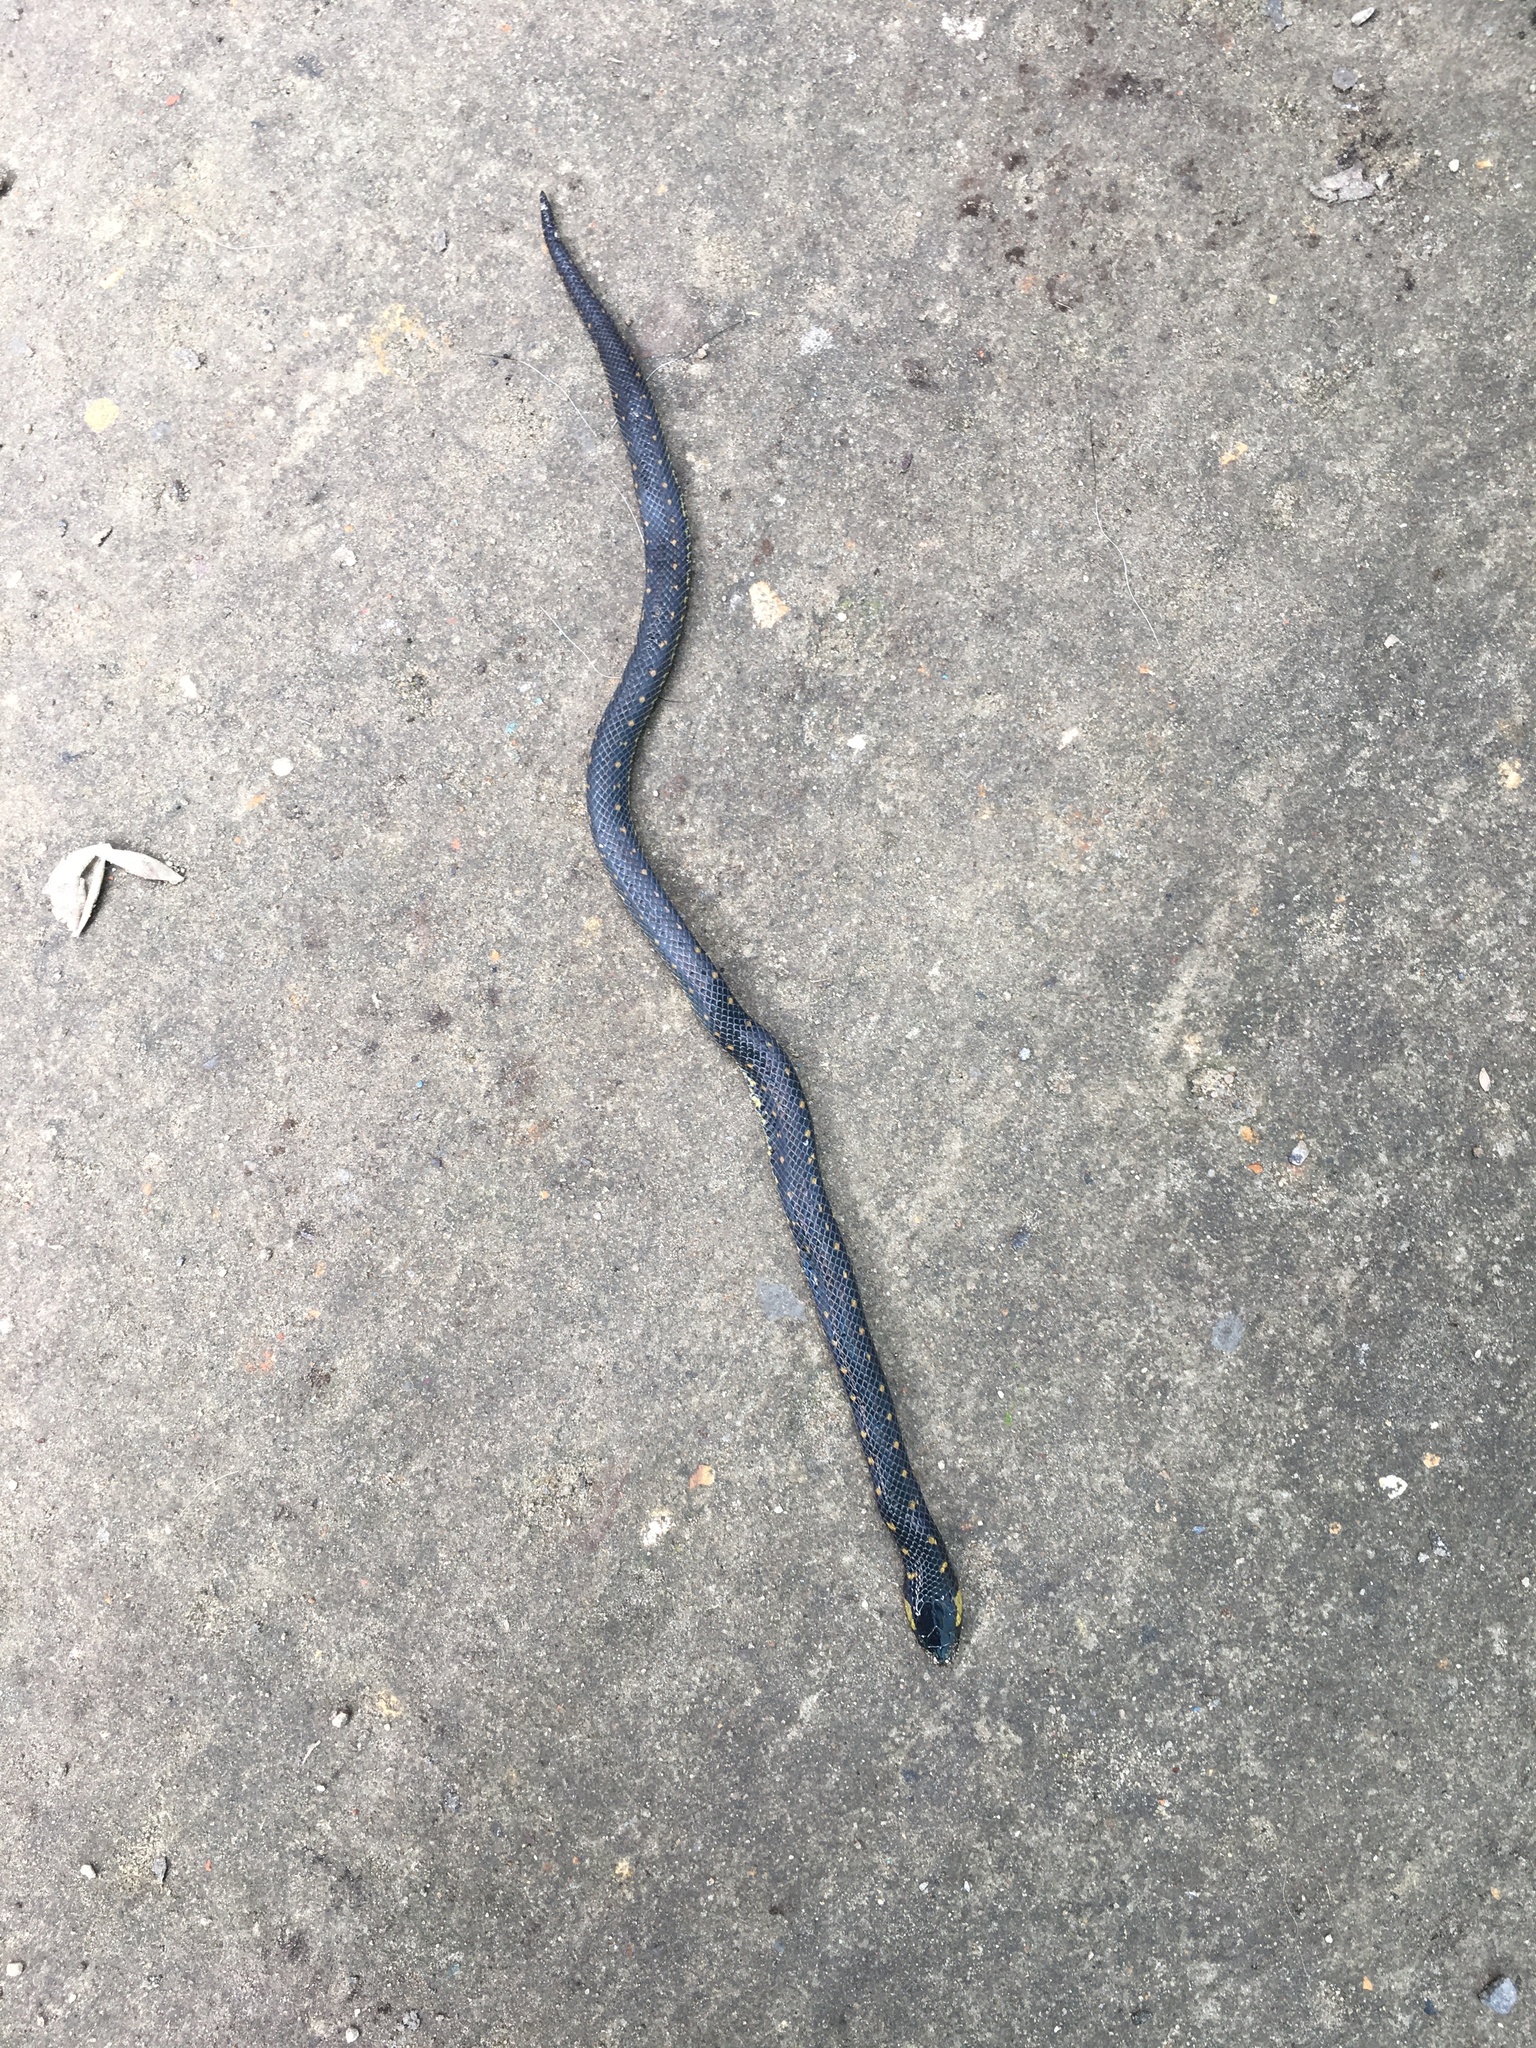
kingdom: Animalia
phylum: Chordata
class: Squamata
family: Colubridae
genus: Atractus
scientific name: Atractus crassicaudatus
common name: Thickhead ground snake
